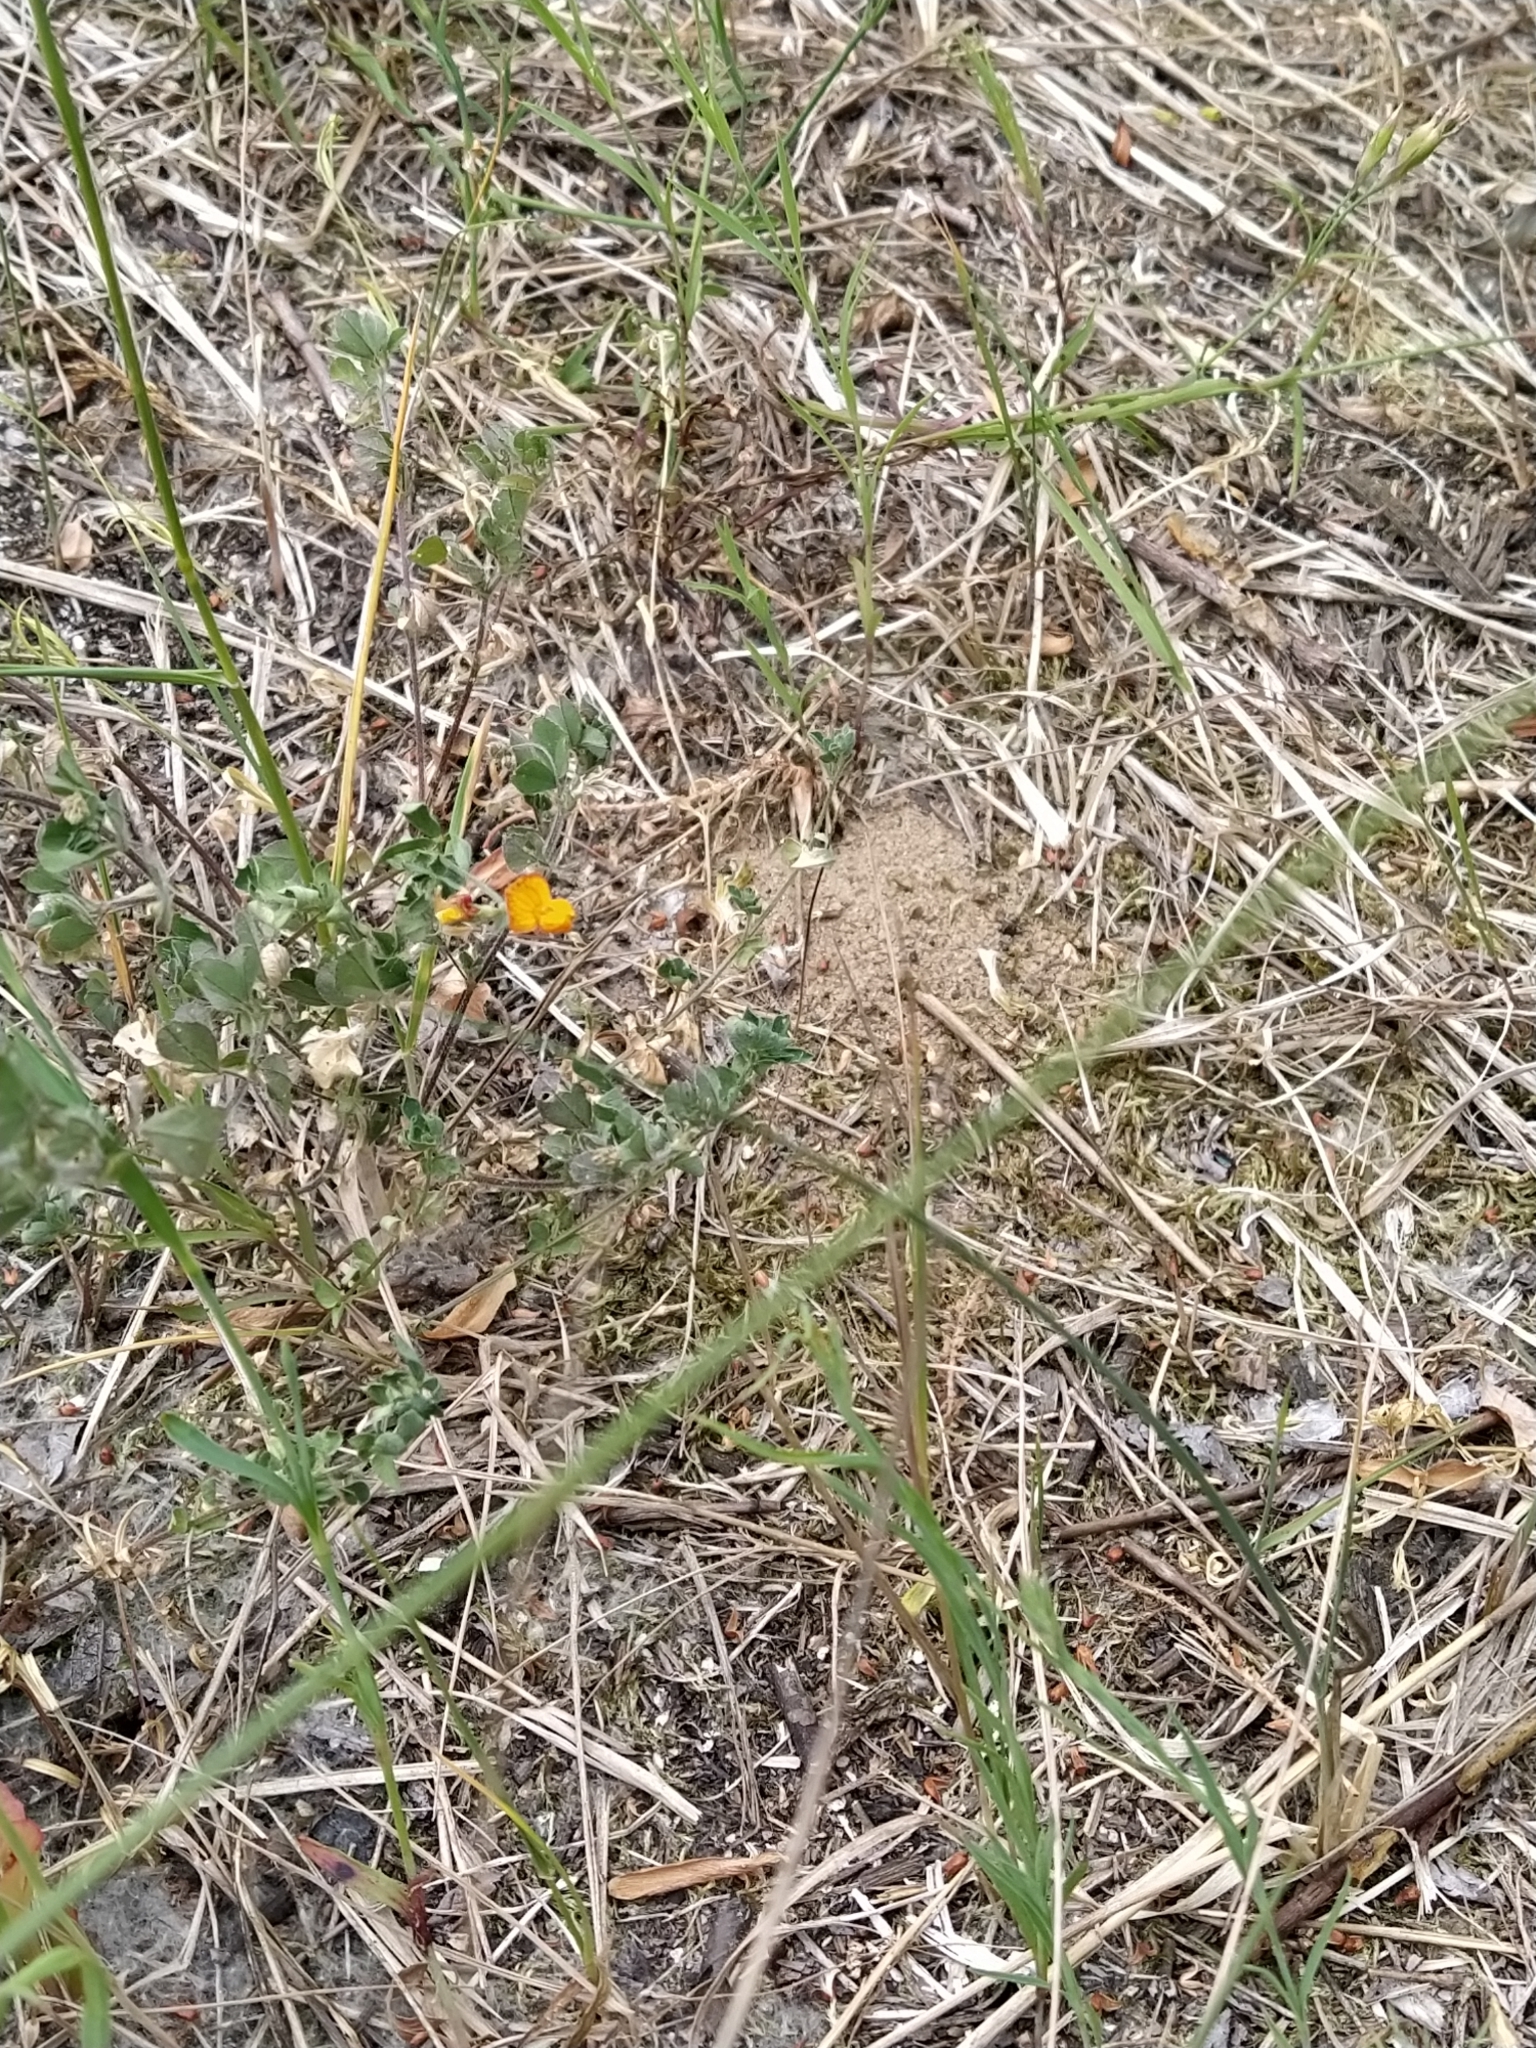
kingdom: Plantae
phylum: Tracheophyta
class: Magnoliopsida
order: Fabales
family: Fabaceae
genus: Lotus
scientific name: Lotus corniculatus
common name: Common bird's-foot-trefoil
